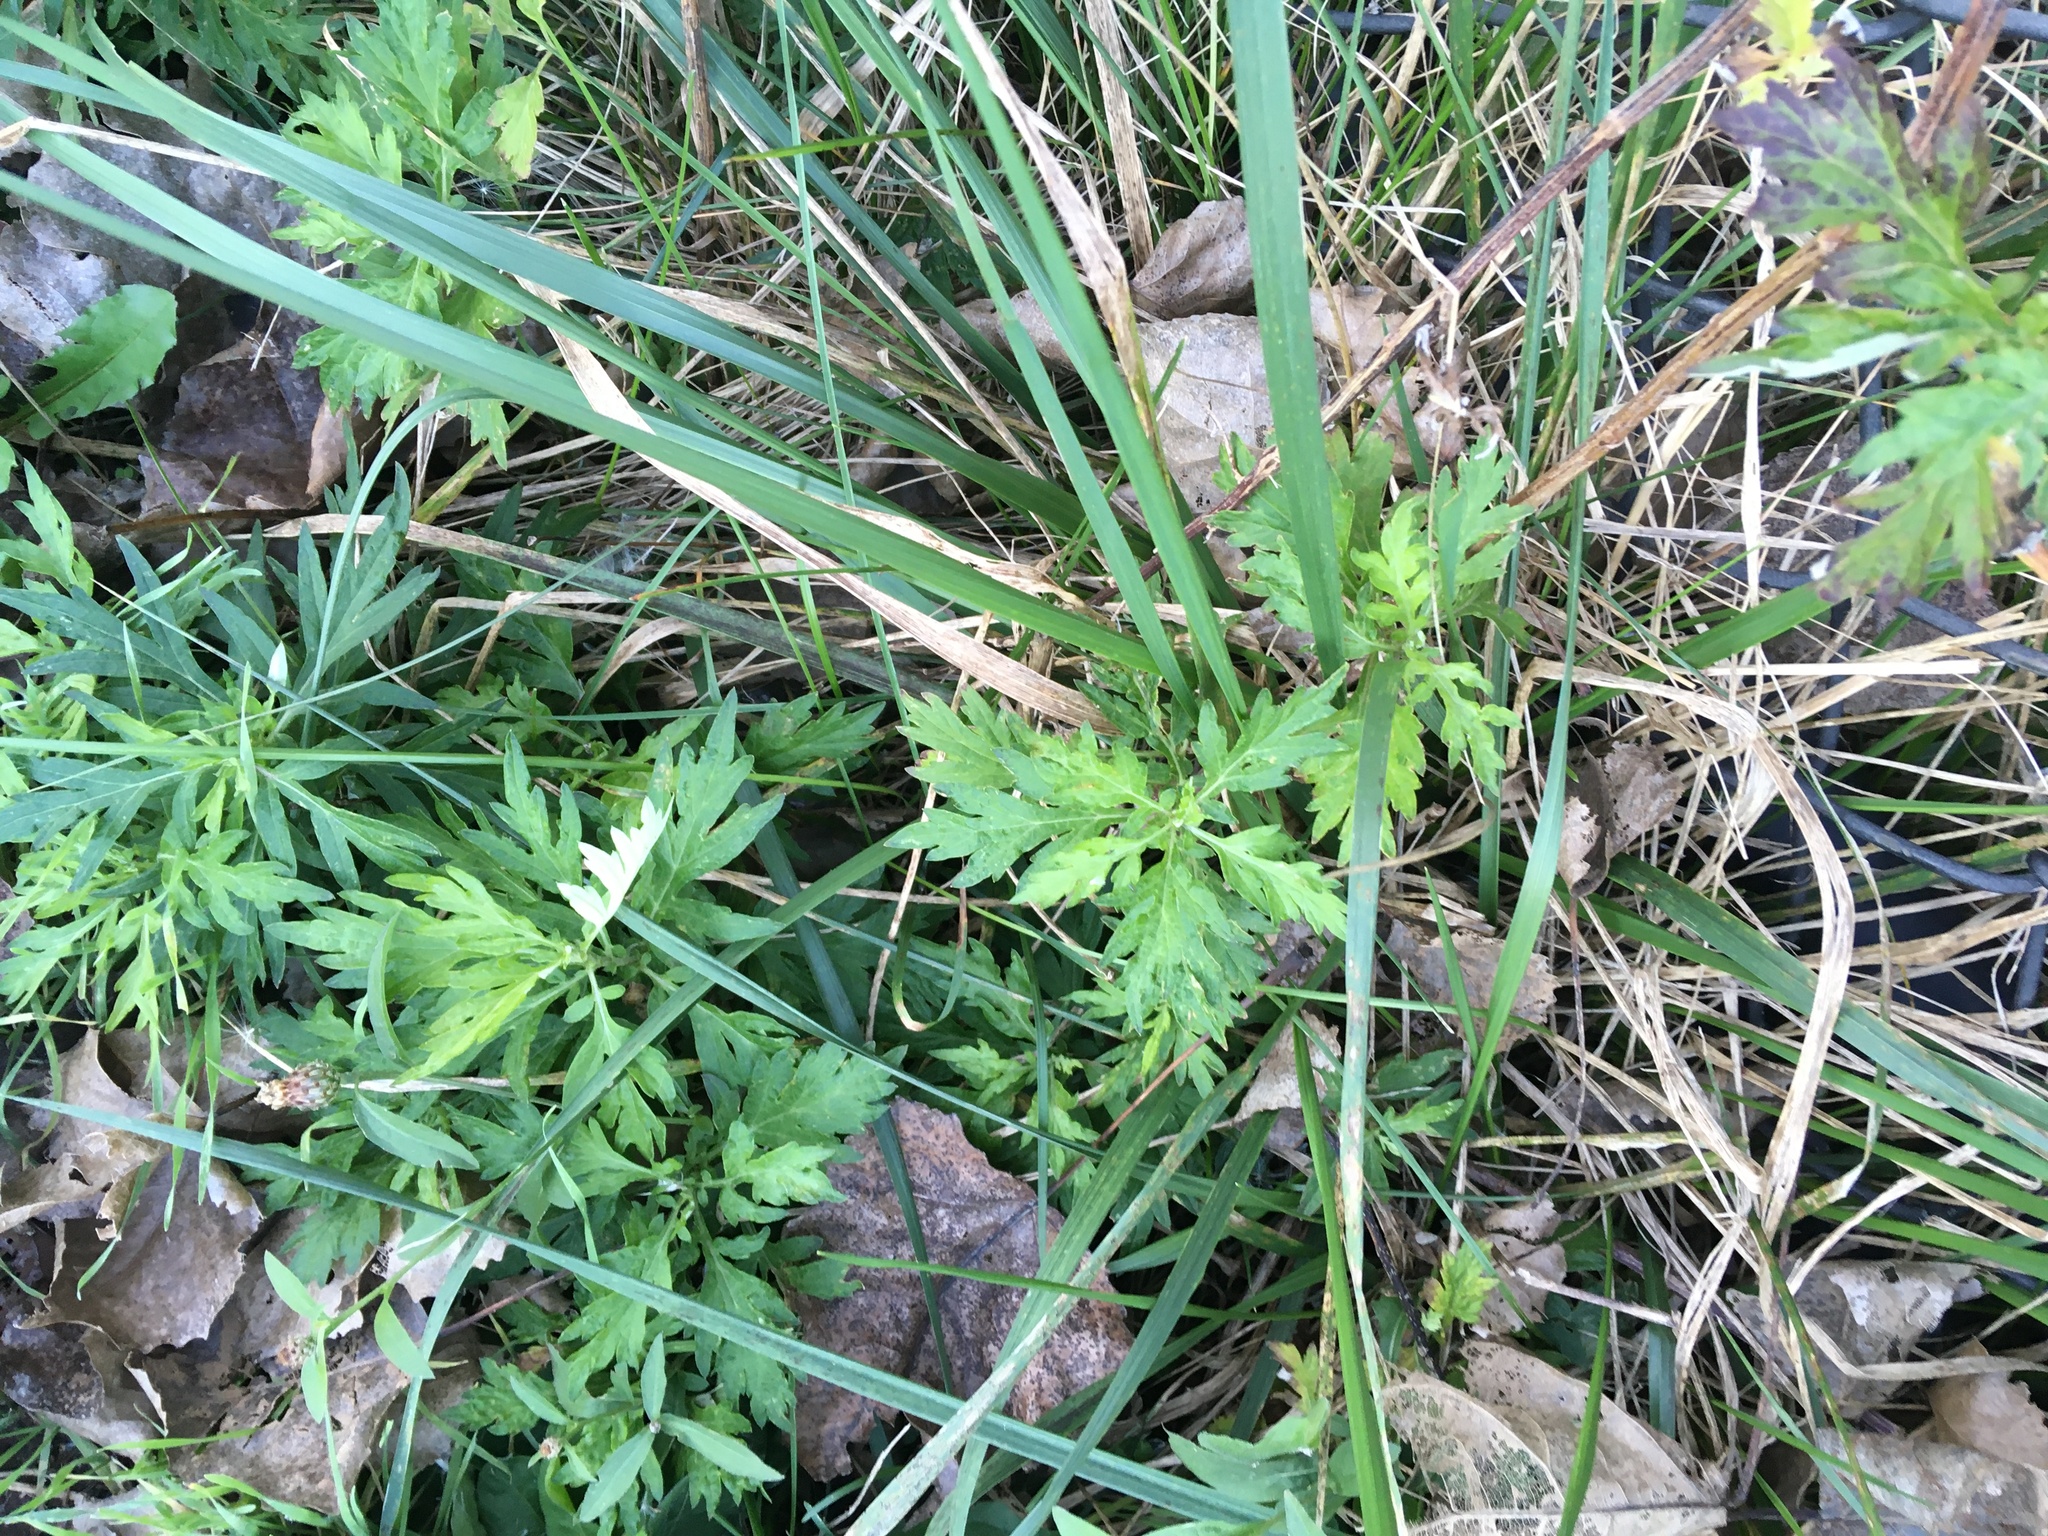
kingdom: Plantae
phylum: Tracheophyta
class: Magnoliopsida
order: Asterales
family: Asteraceae
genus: Artemisia
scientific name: Artemisia vulgaris
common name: Mugwort
